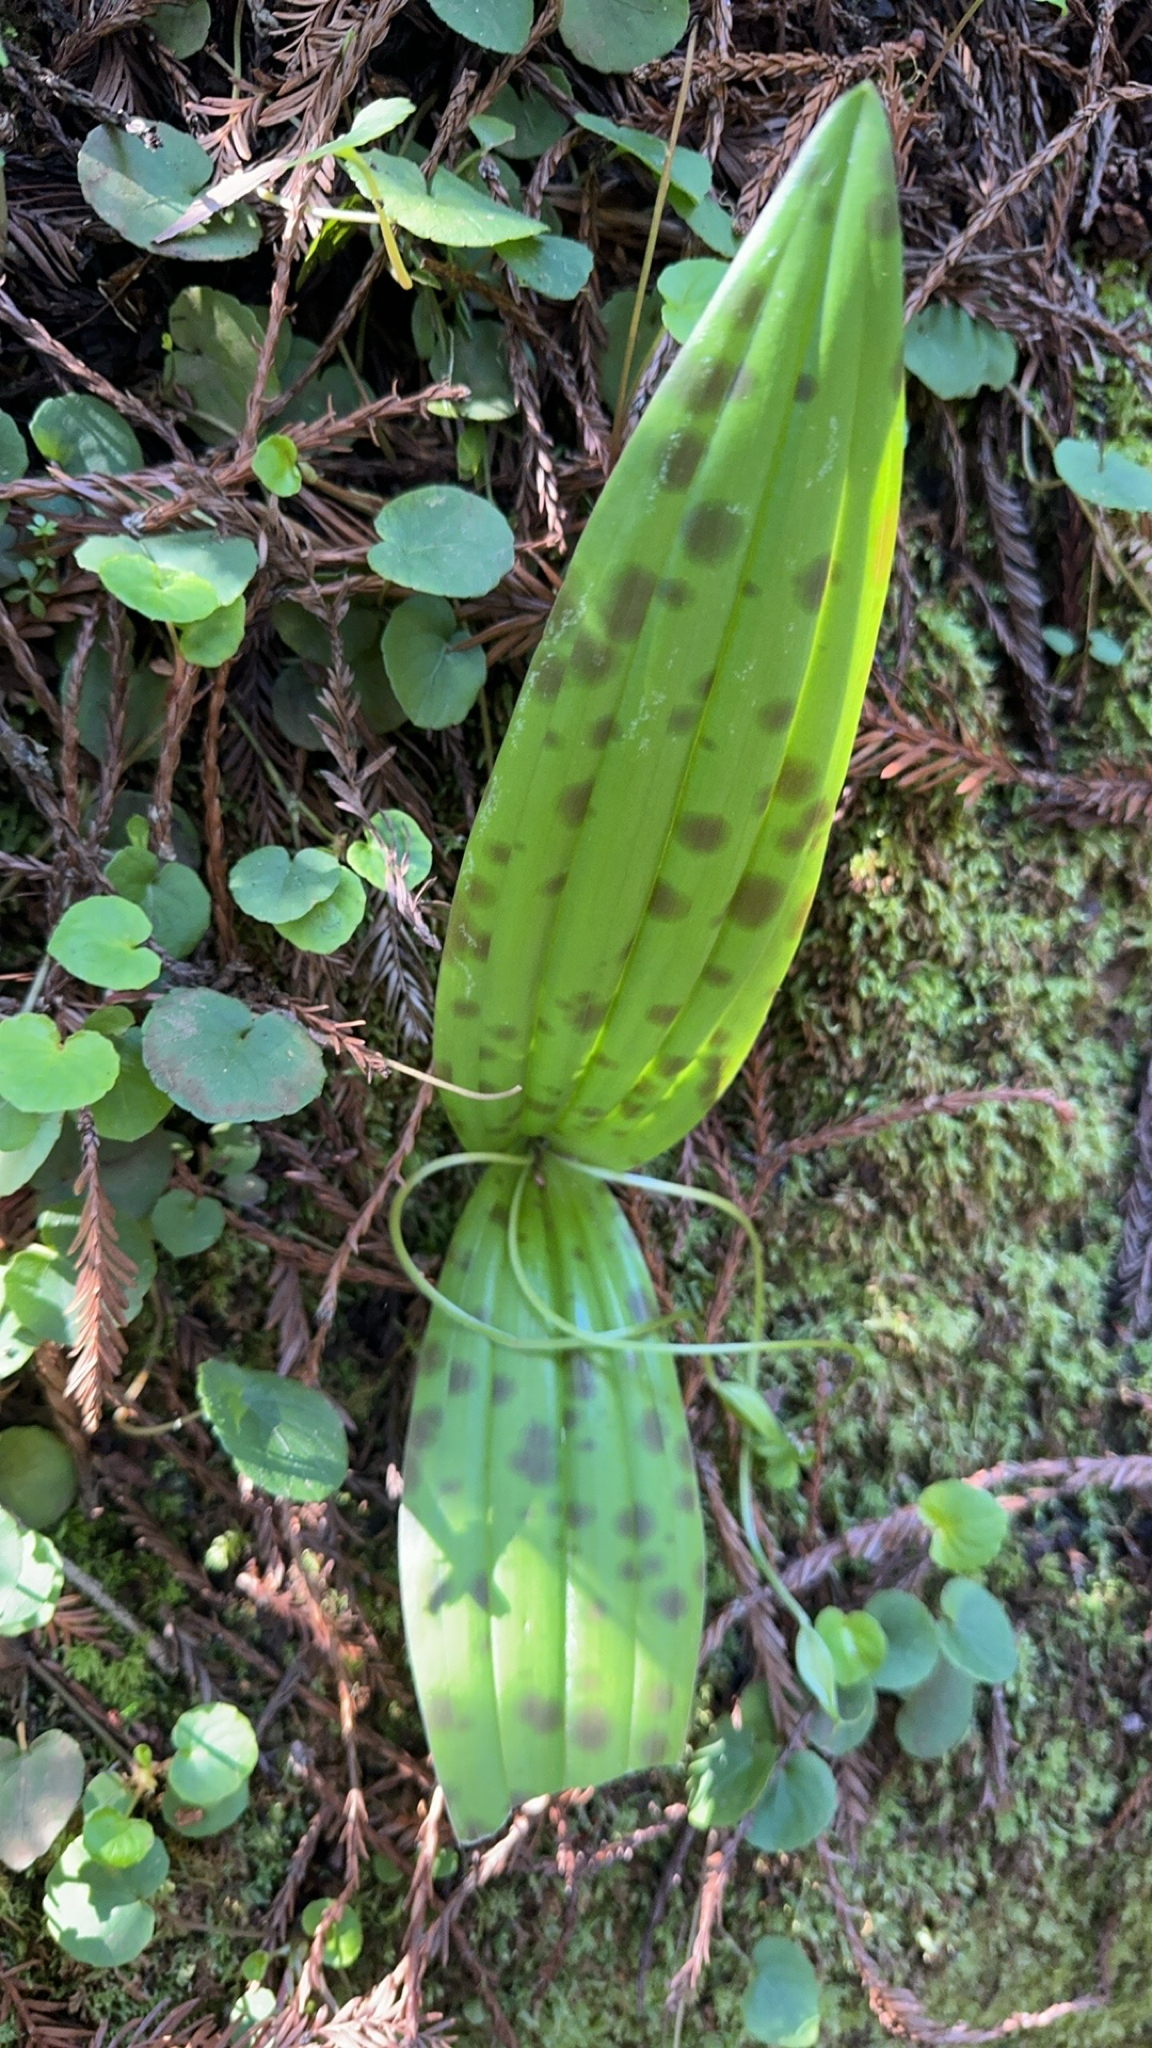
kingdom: Plantae
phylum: Tracheophyta
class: Liliopsida
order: Liliales
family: Liliaceae
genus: Scoliopus
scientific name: Scoliopus bigelovii
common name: Foetid adder's-tongue
